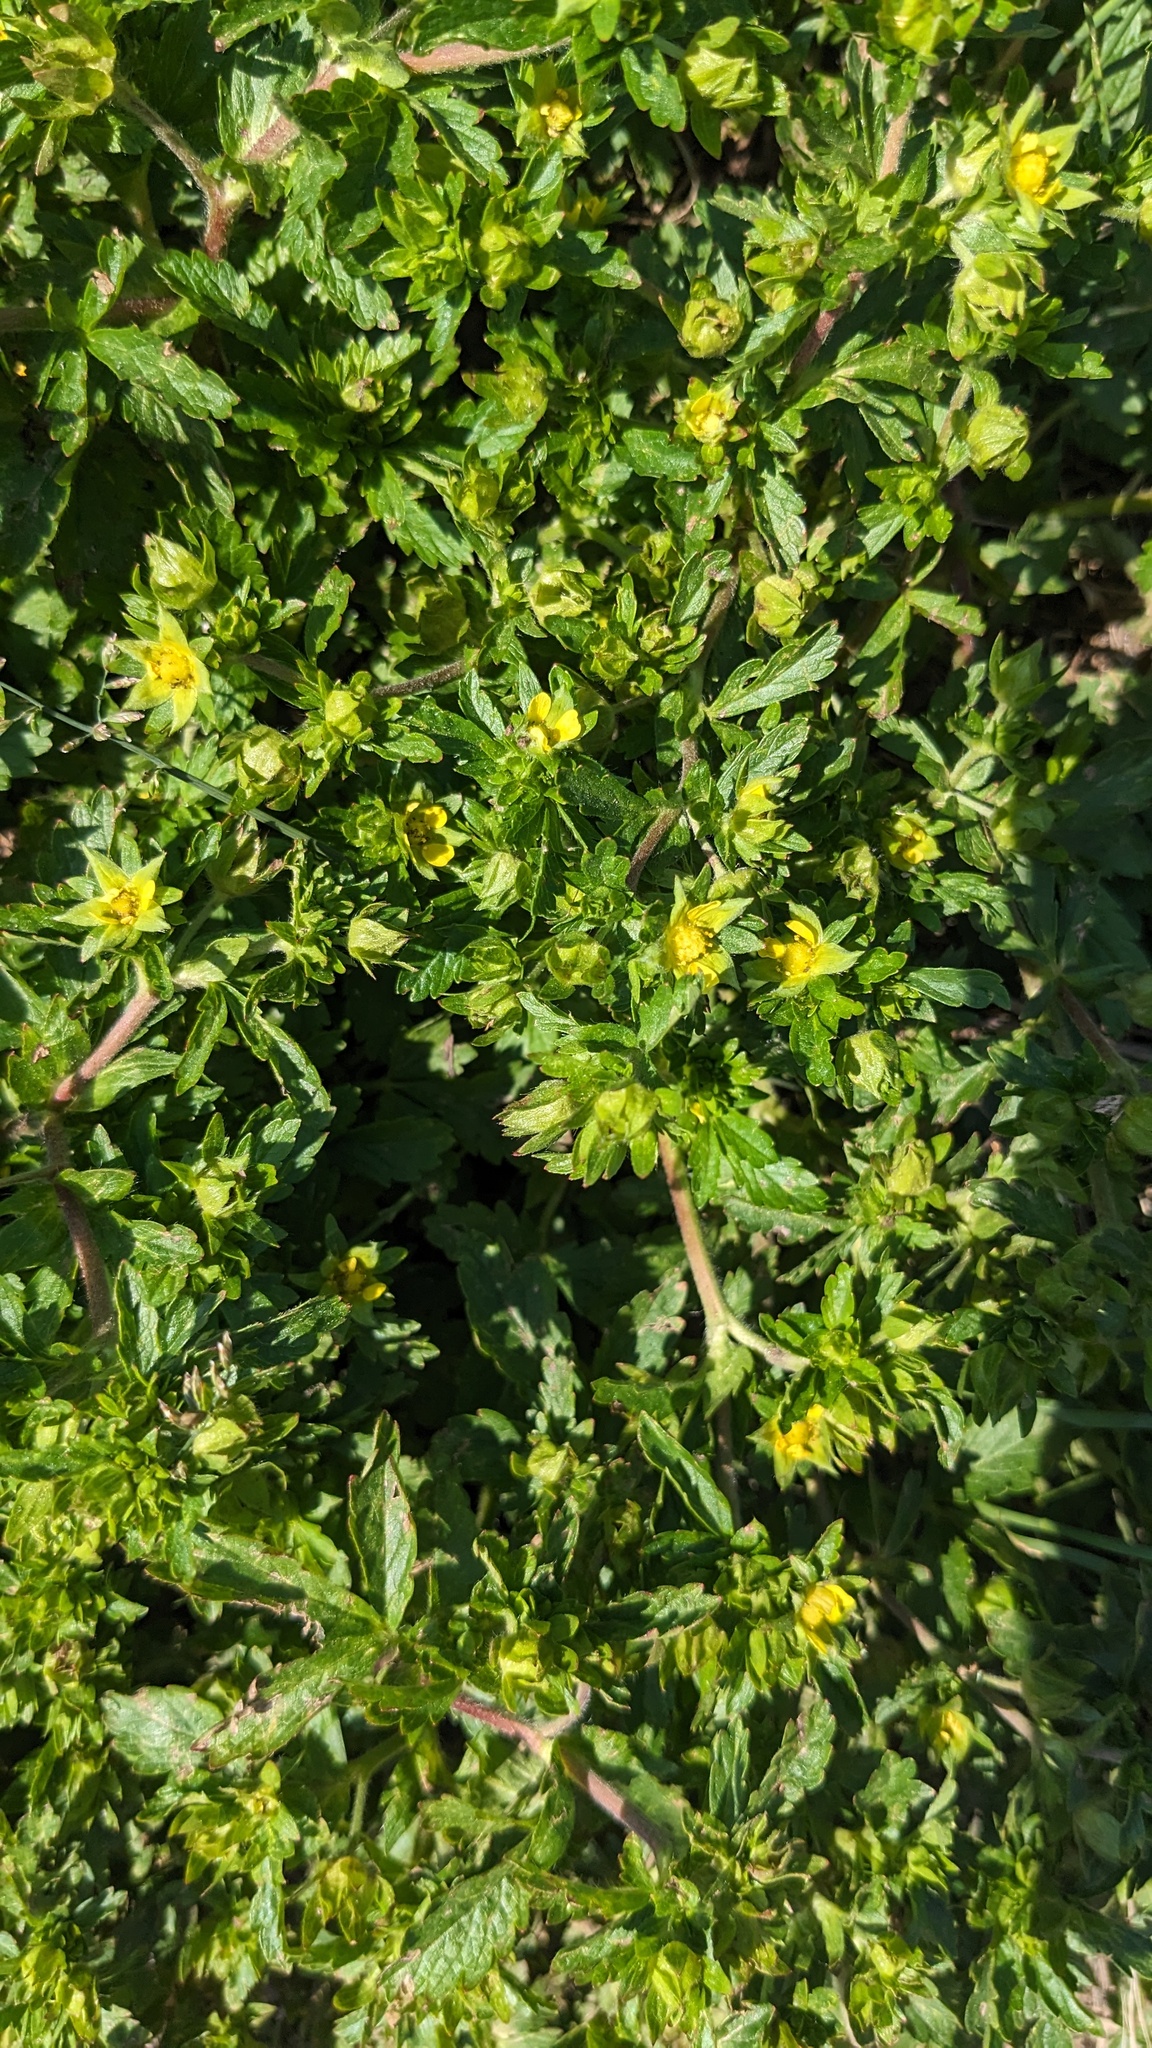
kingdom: Plantae
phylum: Tracheophyta
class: Magnoliopsida
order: Rosales
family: Rosaceae
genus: Potentilla
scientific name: Potentilla norvegica
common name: Ternate-leaved cinquefoil
